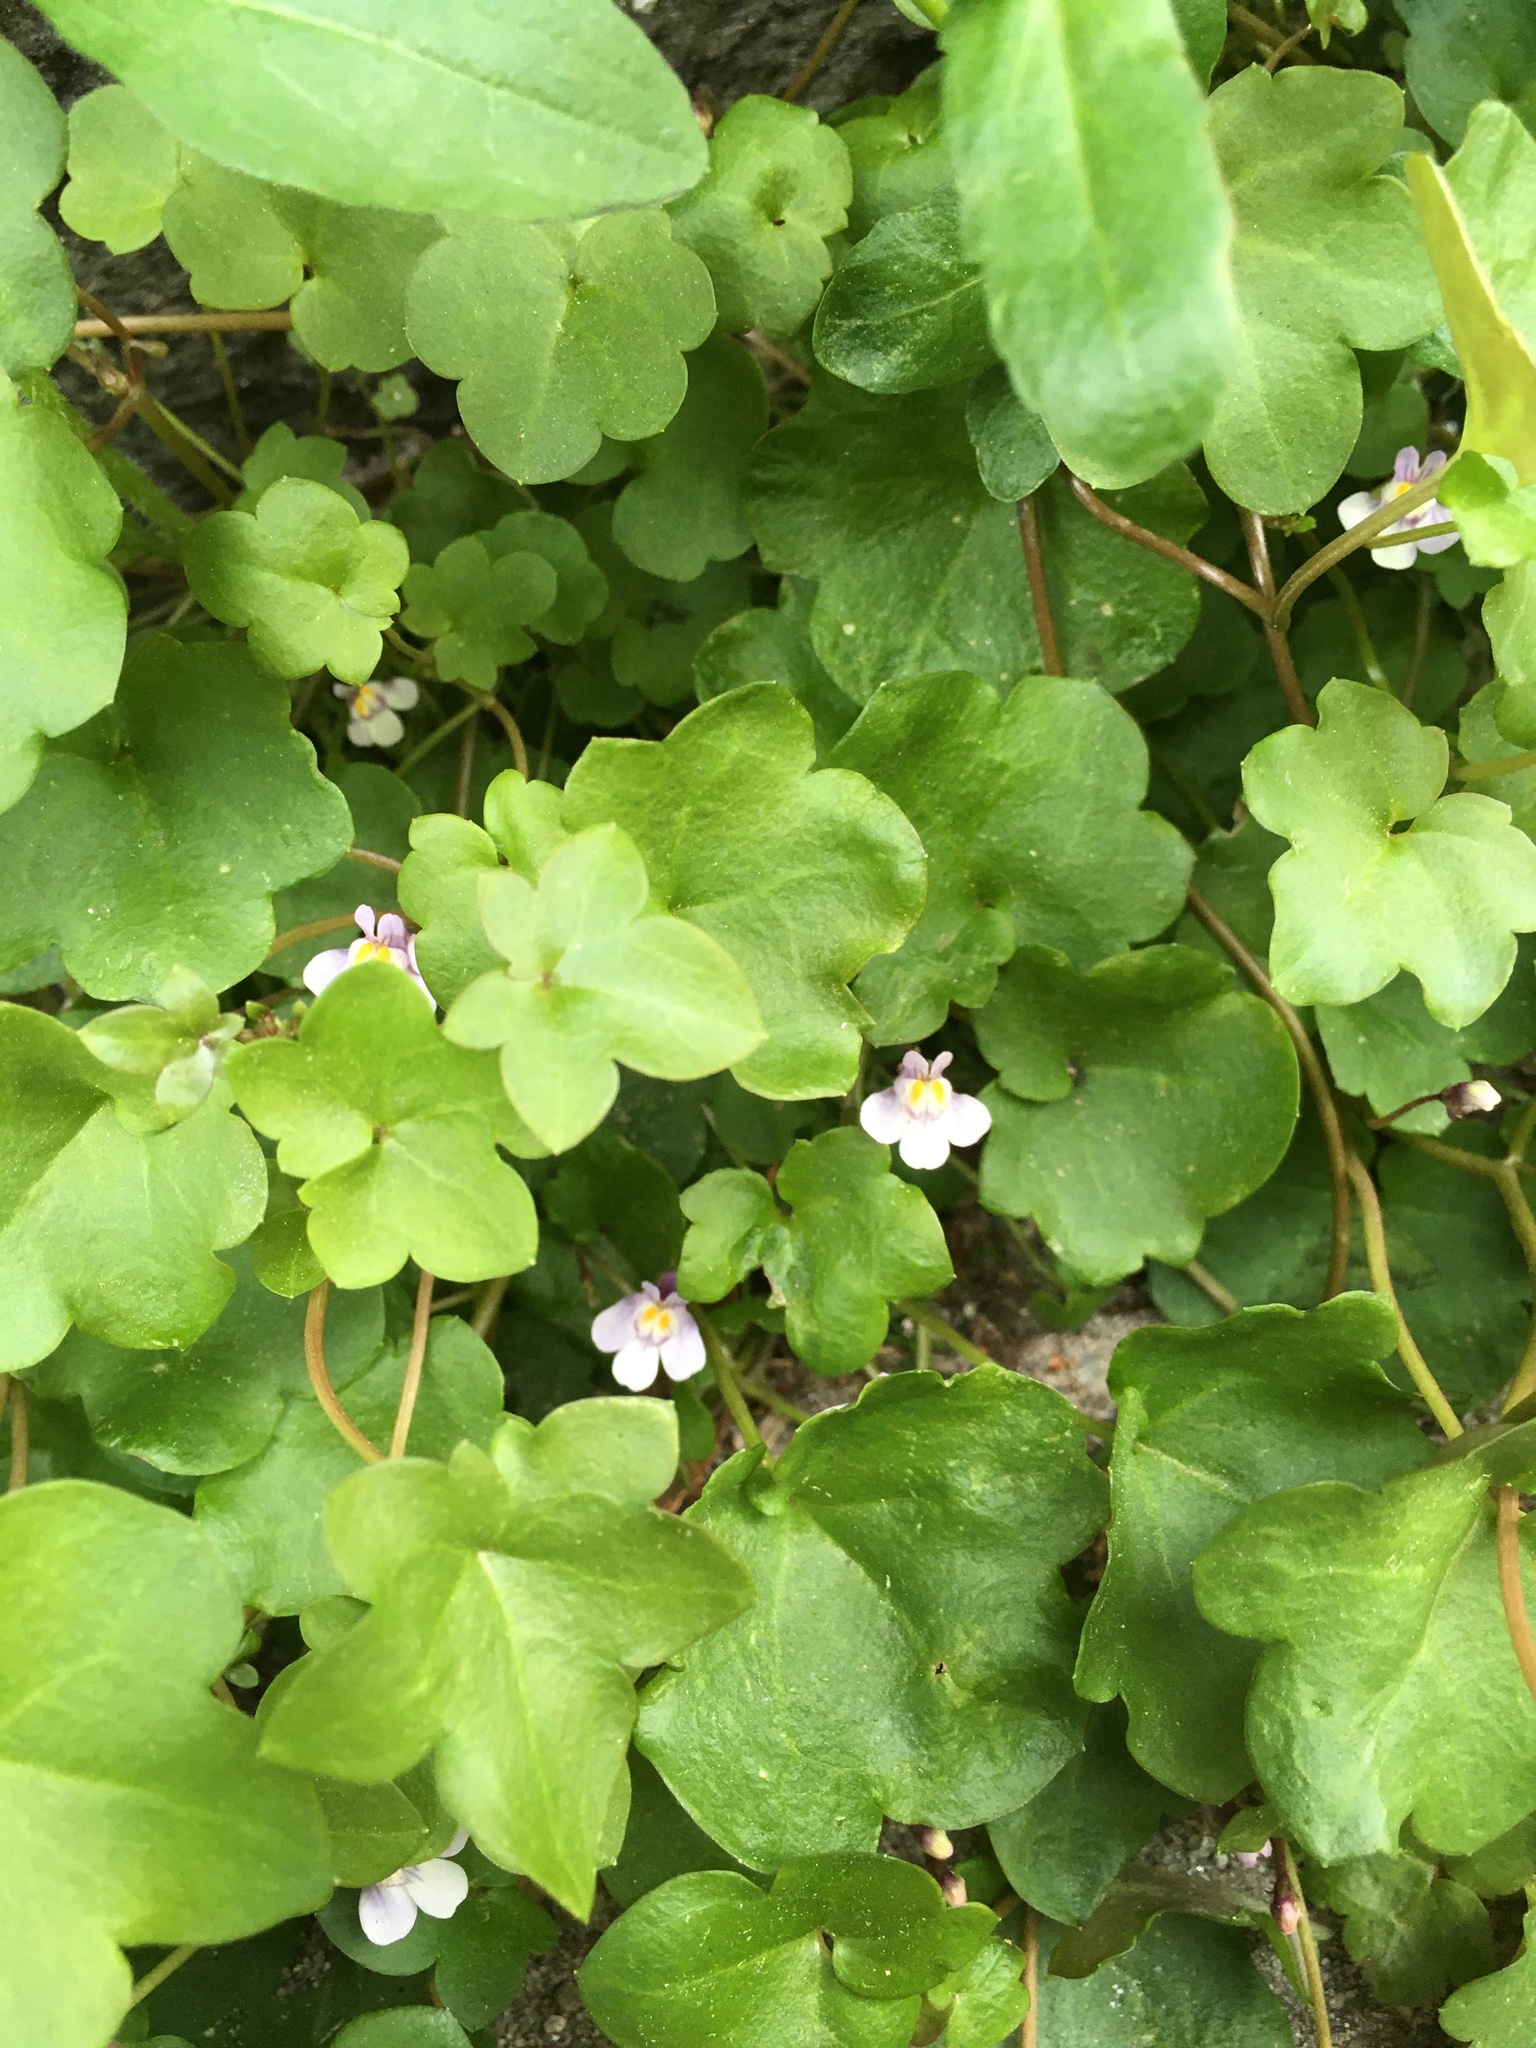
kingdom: Plantae
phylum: Tracheophyta
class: Magnoliopsida
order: Lamiales
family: Plantaginaceae
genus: Cymbalaria
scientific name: Cymbalaria muralis
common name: Ivy-leaved toadflax
